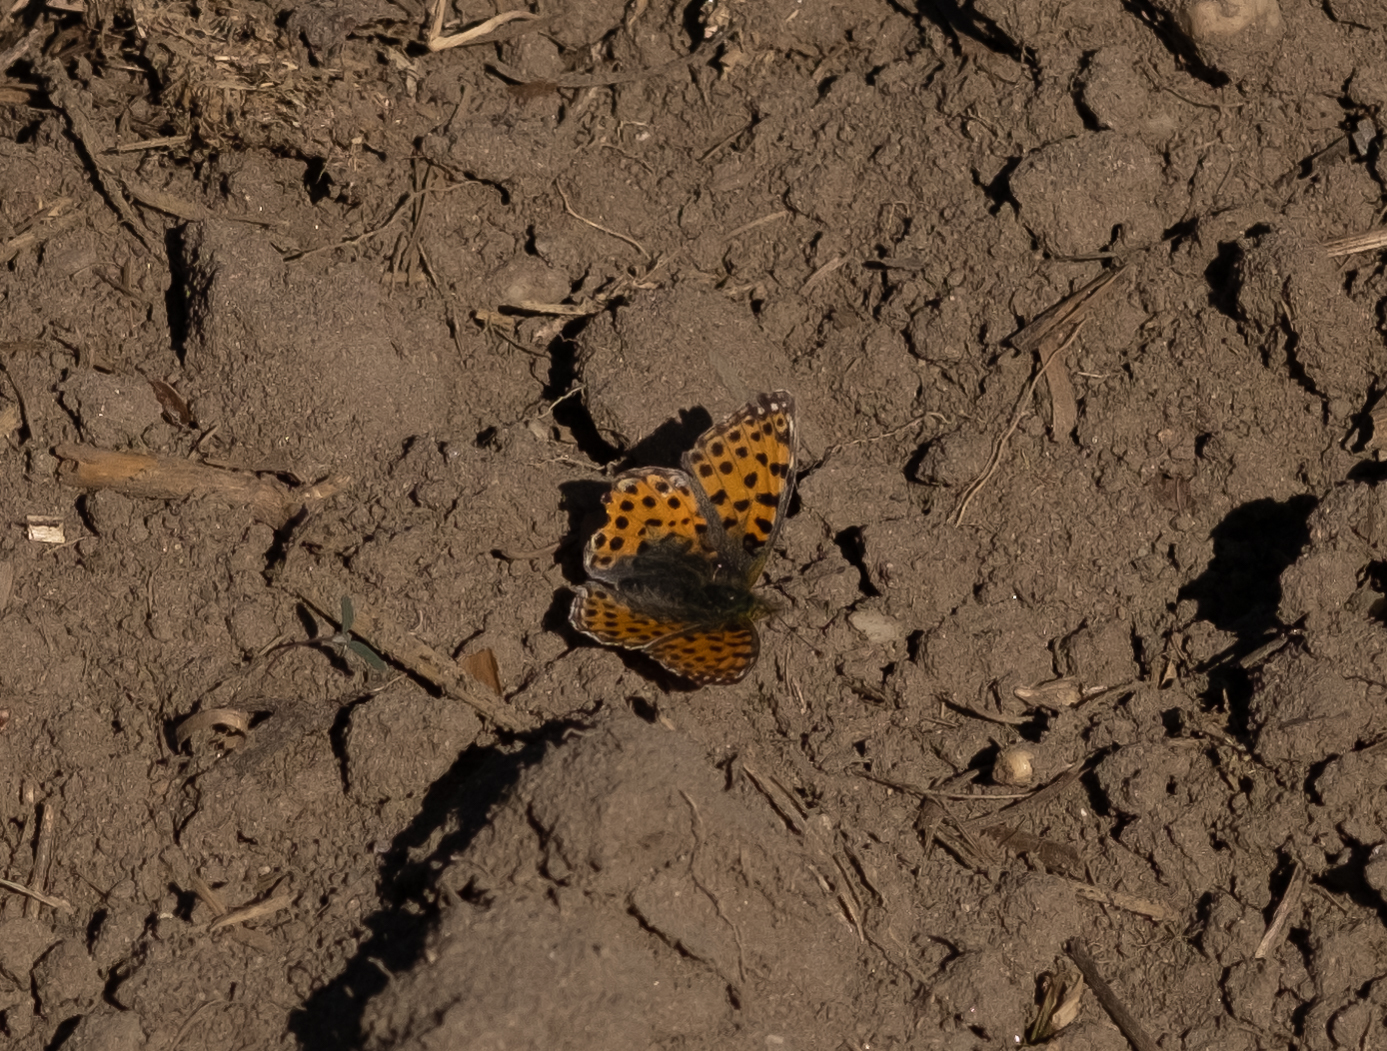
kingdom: Animalia
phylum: Arthropoda
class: Insecta
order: Lepidoptera
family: Nymphalidae
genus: Issoria
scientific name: Issoria lathonia
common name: Queen of spain fritillary
